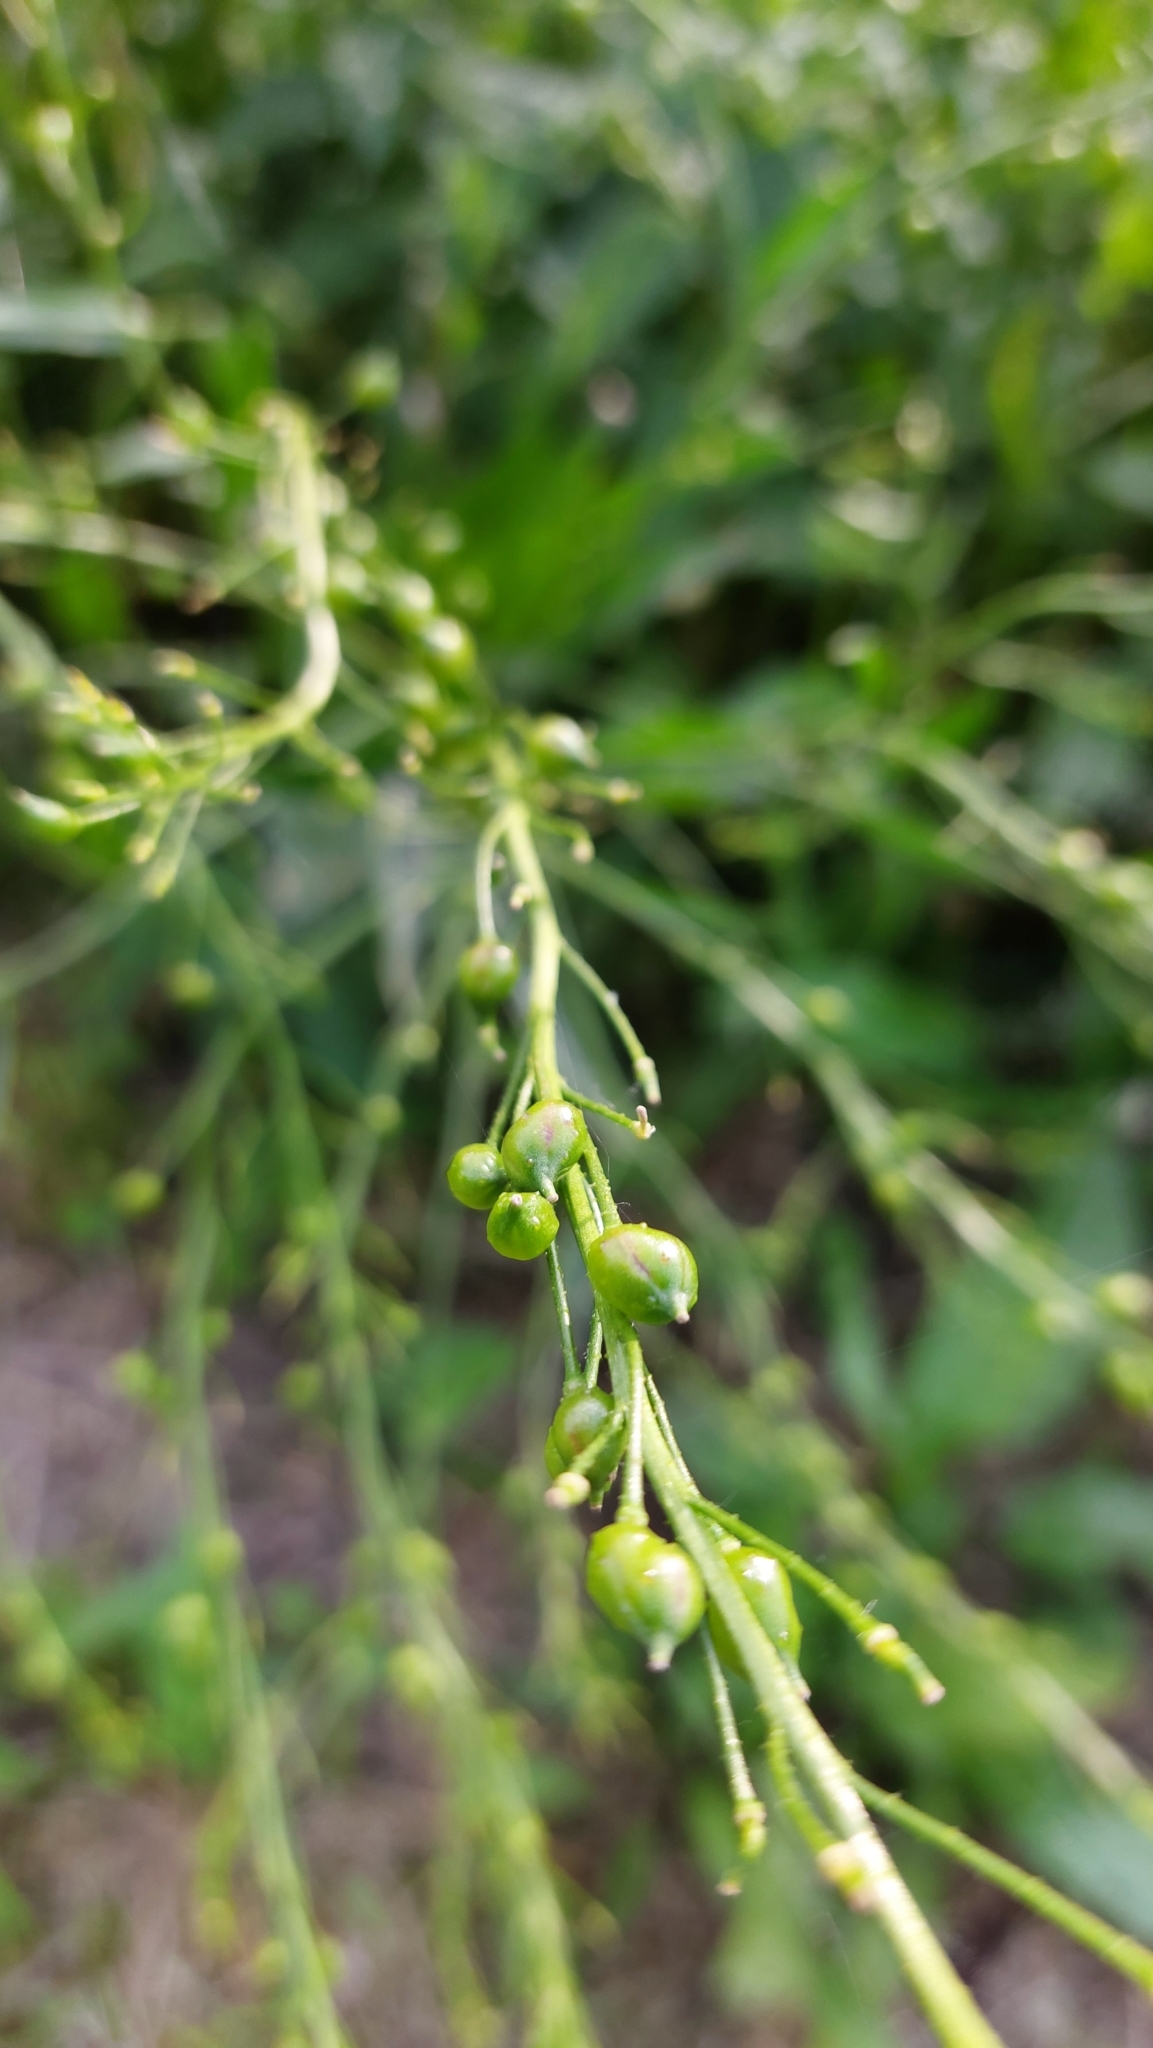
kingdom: Plantae
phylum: Tracheophyta
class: Magnoliopsida
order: Brassicales
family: Brassicaceae
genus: Bunias
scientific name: Bunias orientalis
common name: Warty-cabbage
